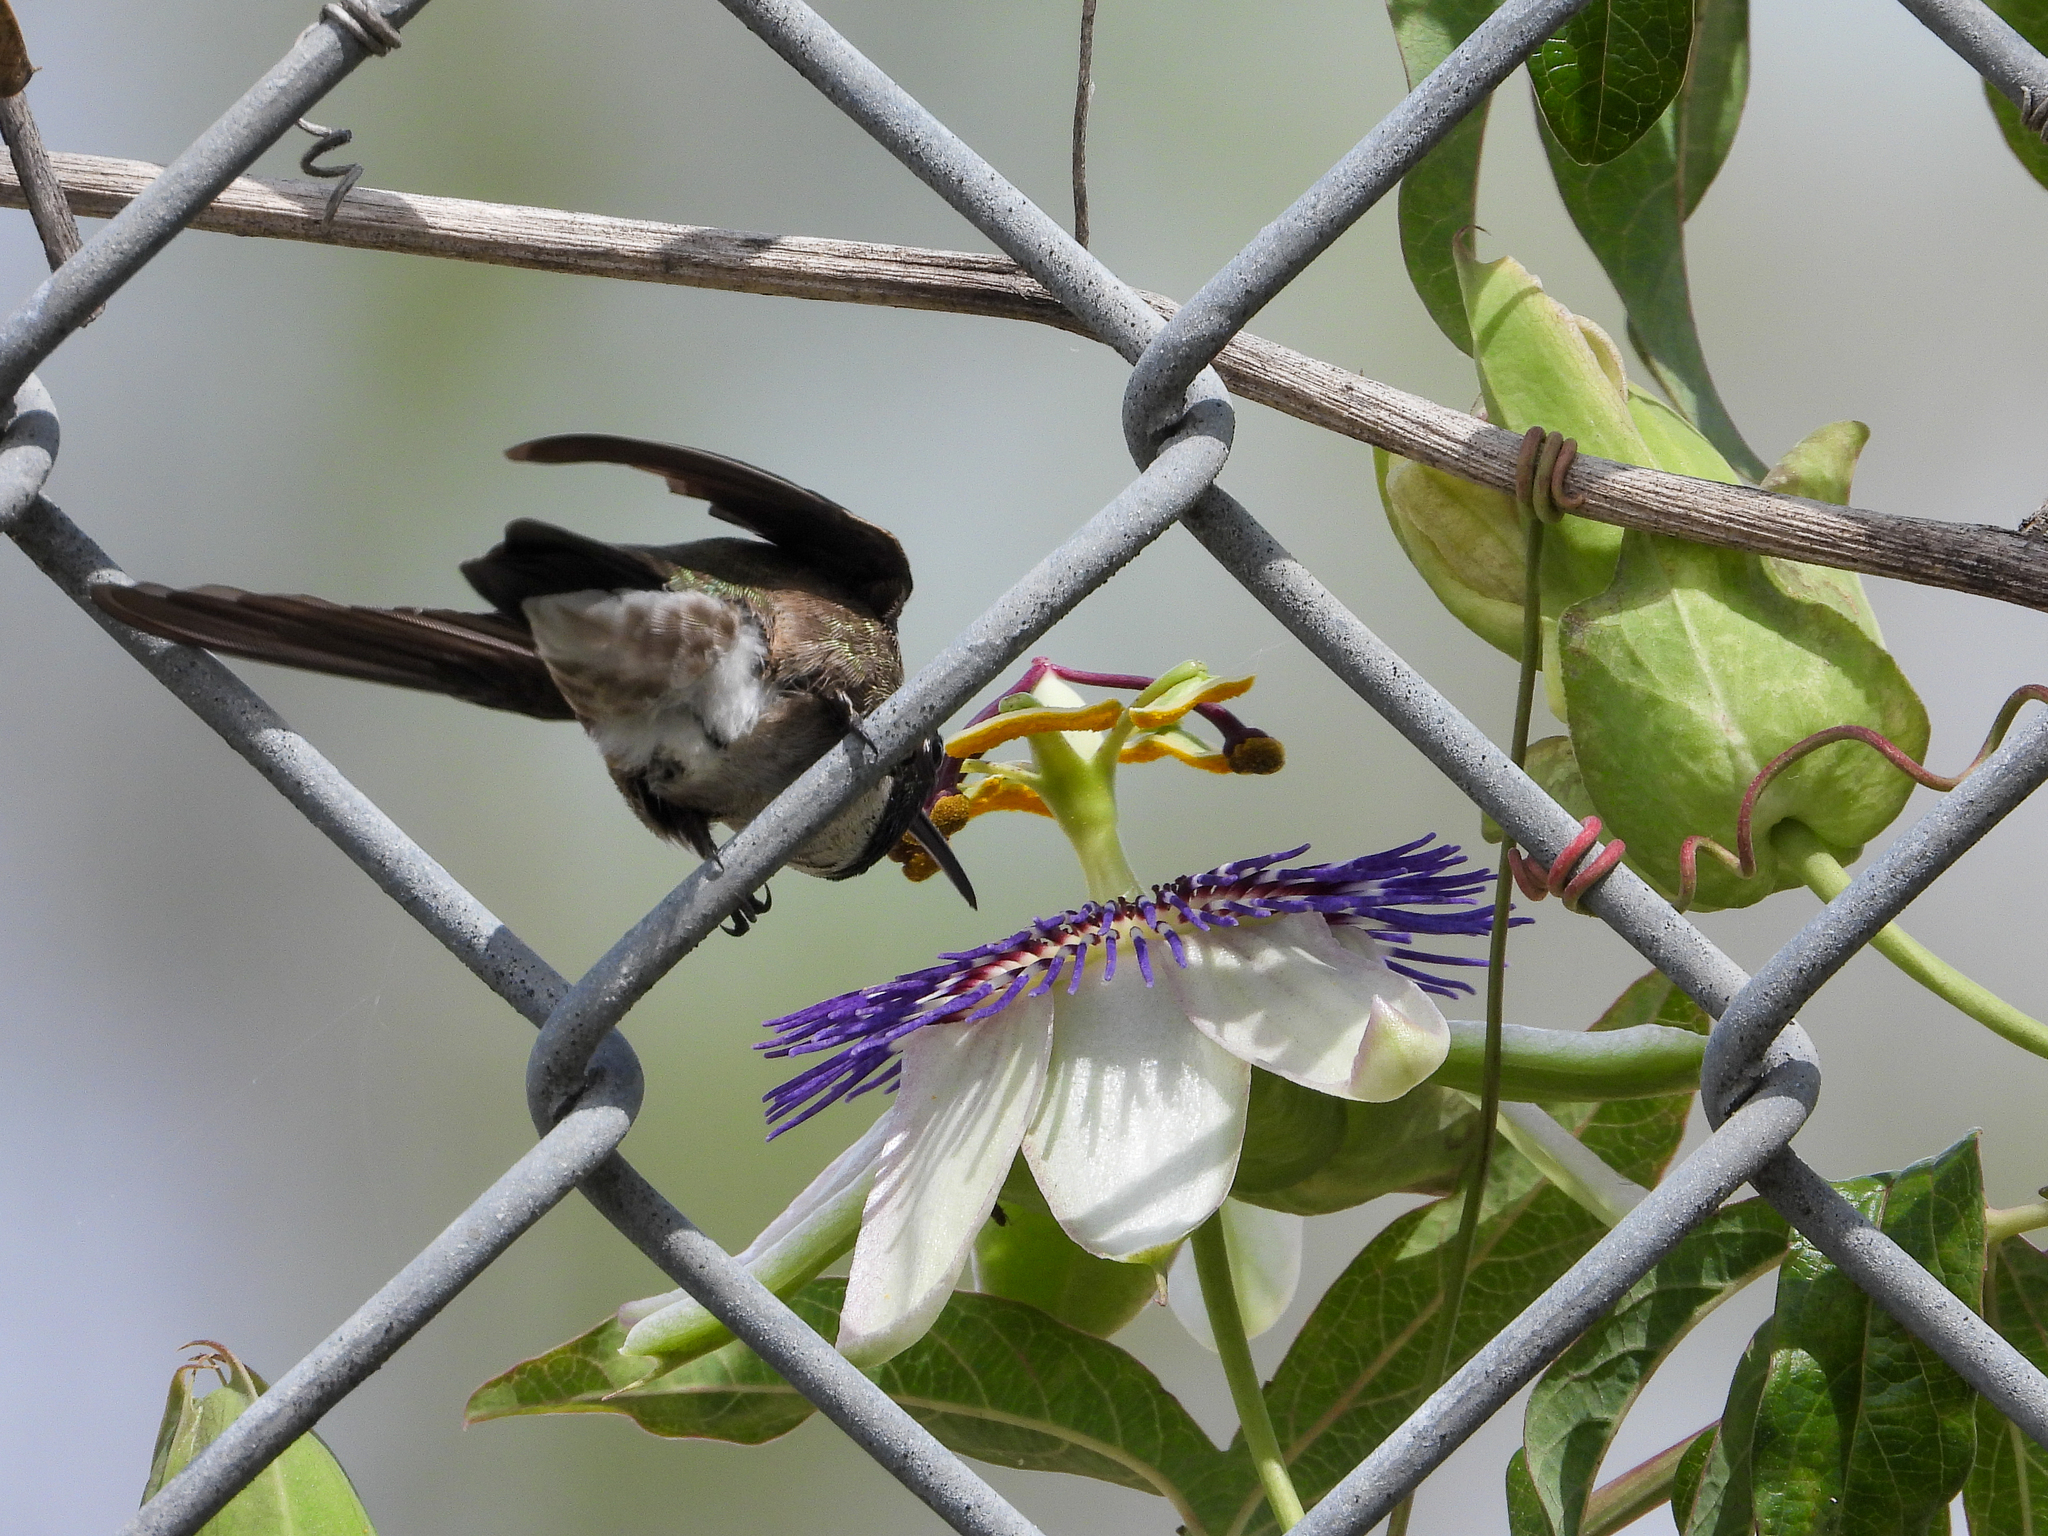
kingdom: Animalia
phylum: Chordata
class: Aves
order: Apodiformes
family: Trochilidae
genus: Archilochus
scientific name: Archilochus alexandri
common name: Black-chinned hummingbird
